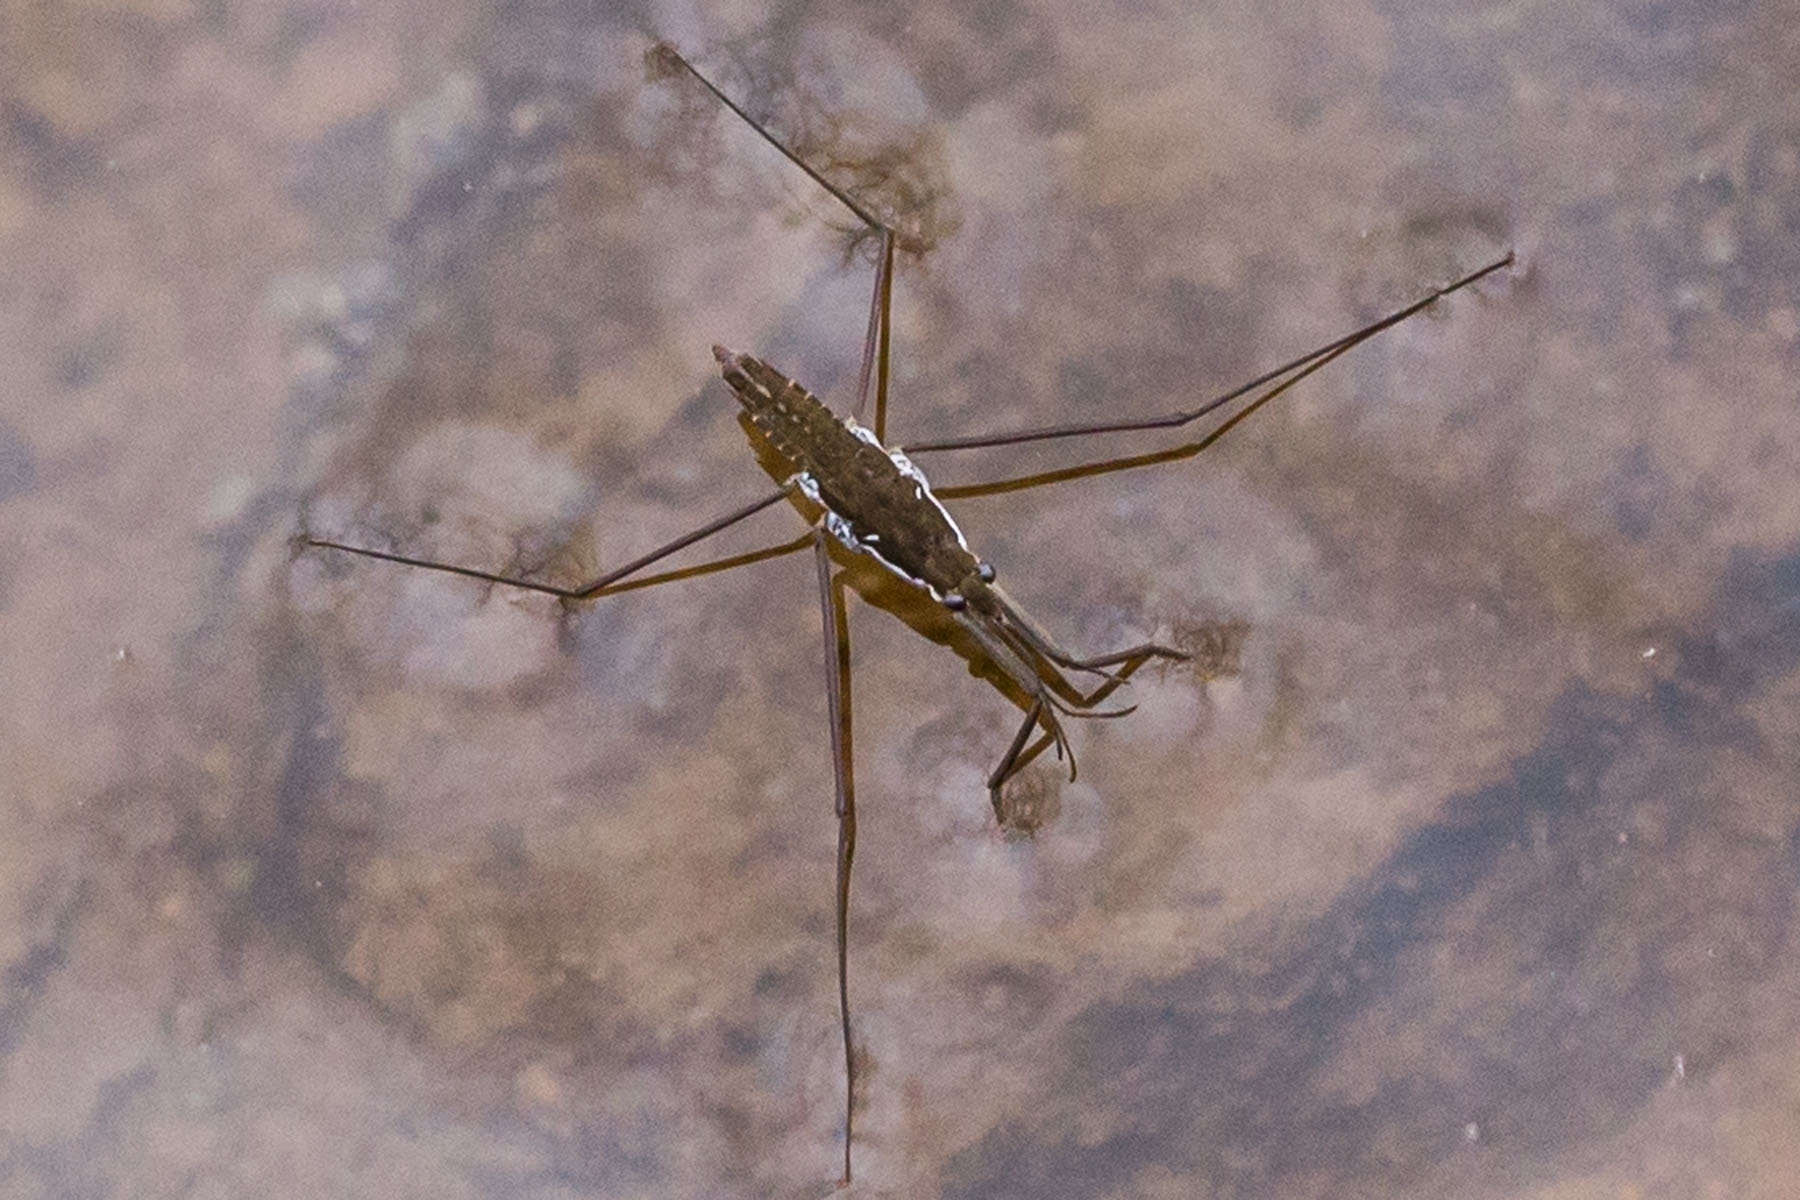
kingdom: Animalia
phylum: Arthropoda
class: Insecta
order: Hemiptera
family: Gerridae
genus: Aquarius
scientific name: Aquarius
